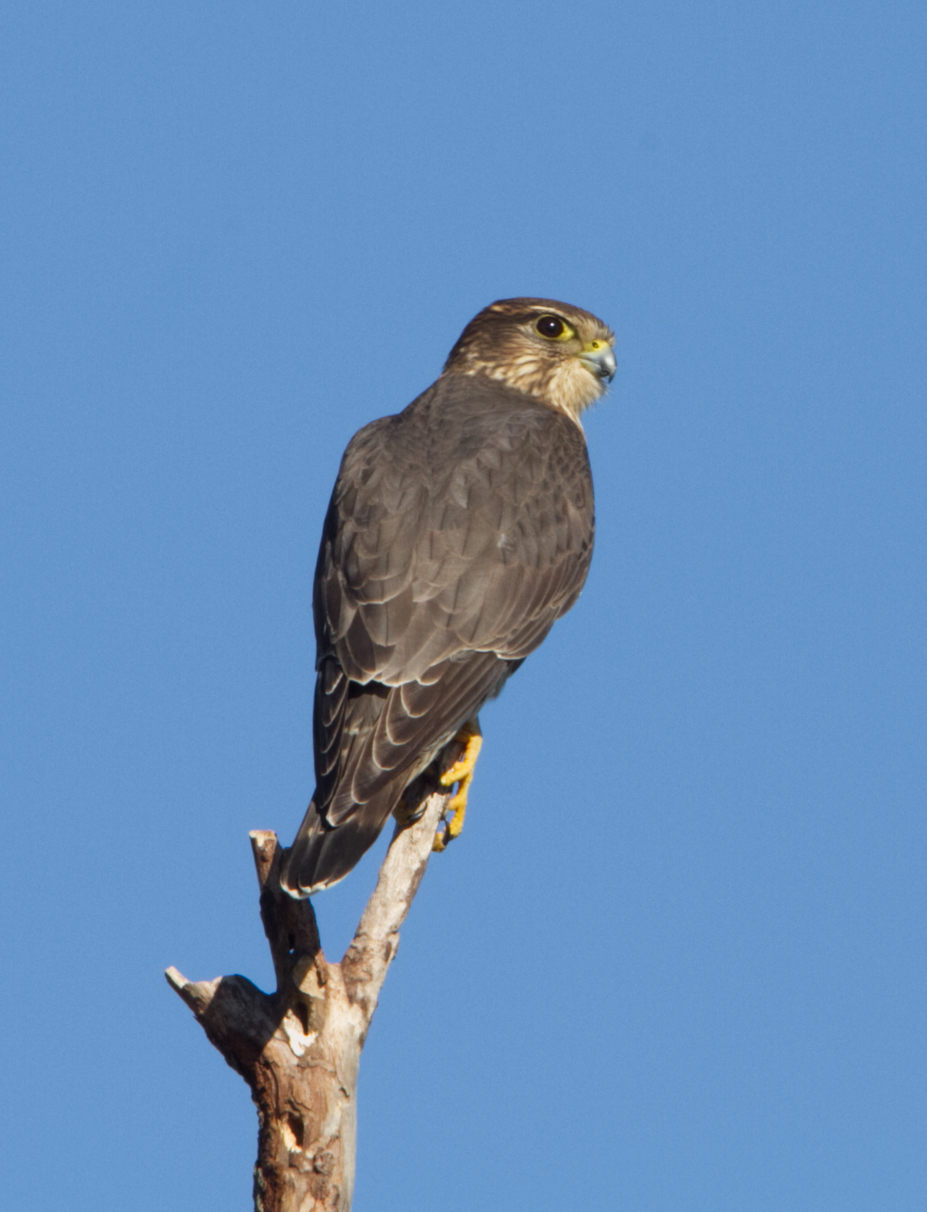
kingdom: Animalia
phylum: Chordata
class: Aves
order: Falconiformes
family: Falconidae
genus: Falco
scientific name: Falco columbarius
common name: Merlin
